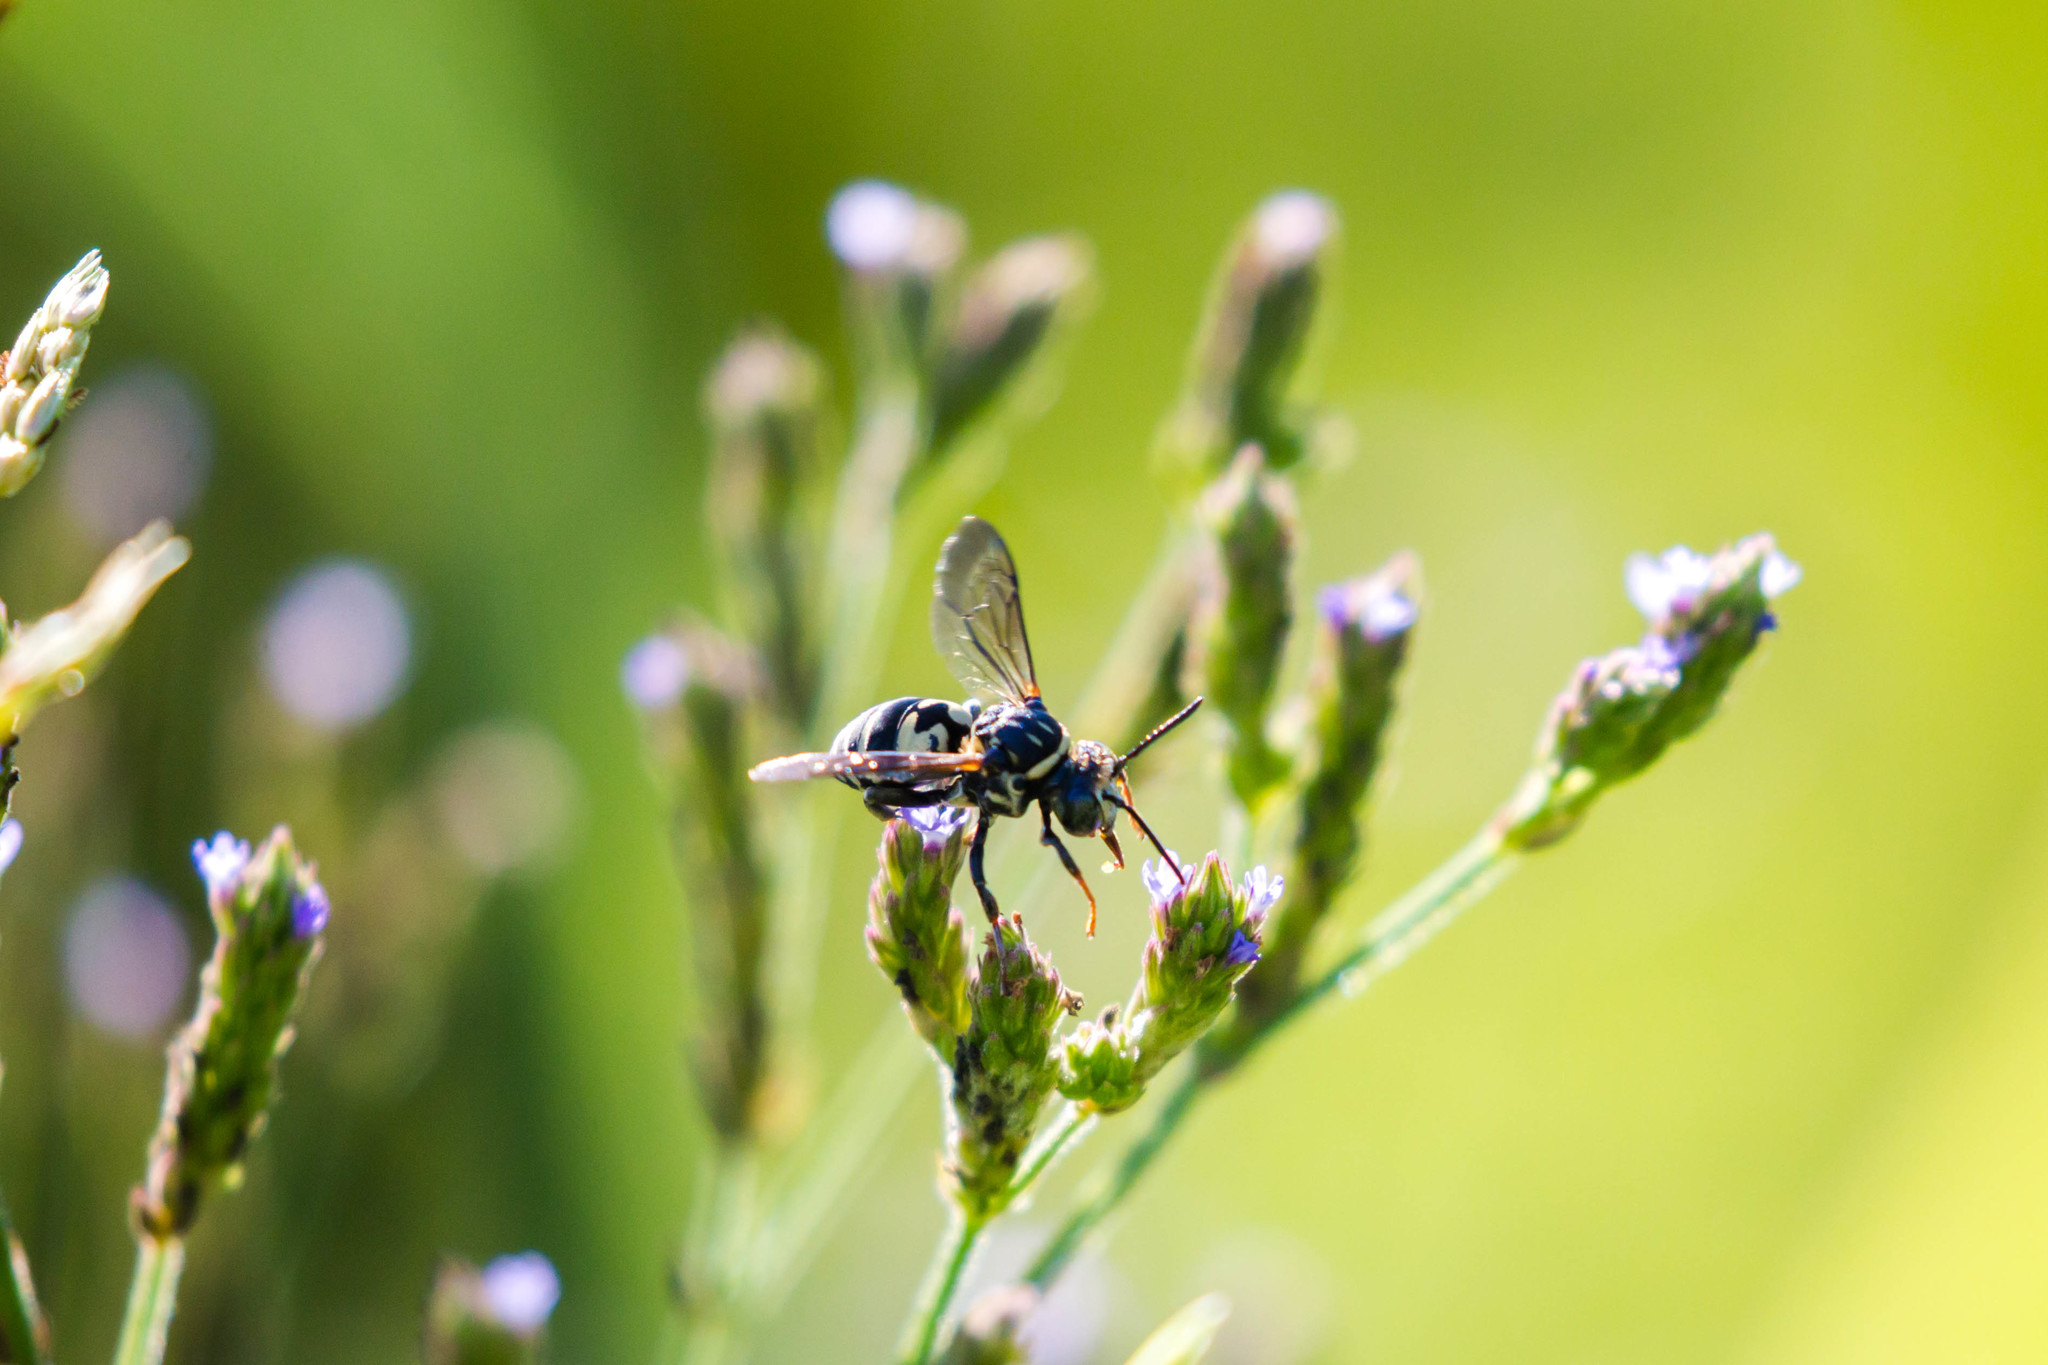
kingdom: Animalia
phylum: Arthropoda
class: Insecta
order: Hymenoptera
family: Apidae
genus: Triepeolus
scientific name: Triepeolus lunatus
